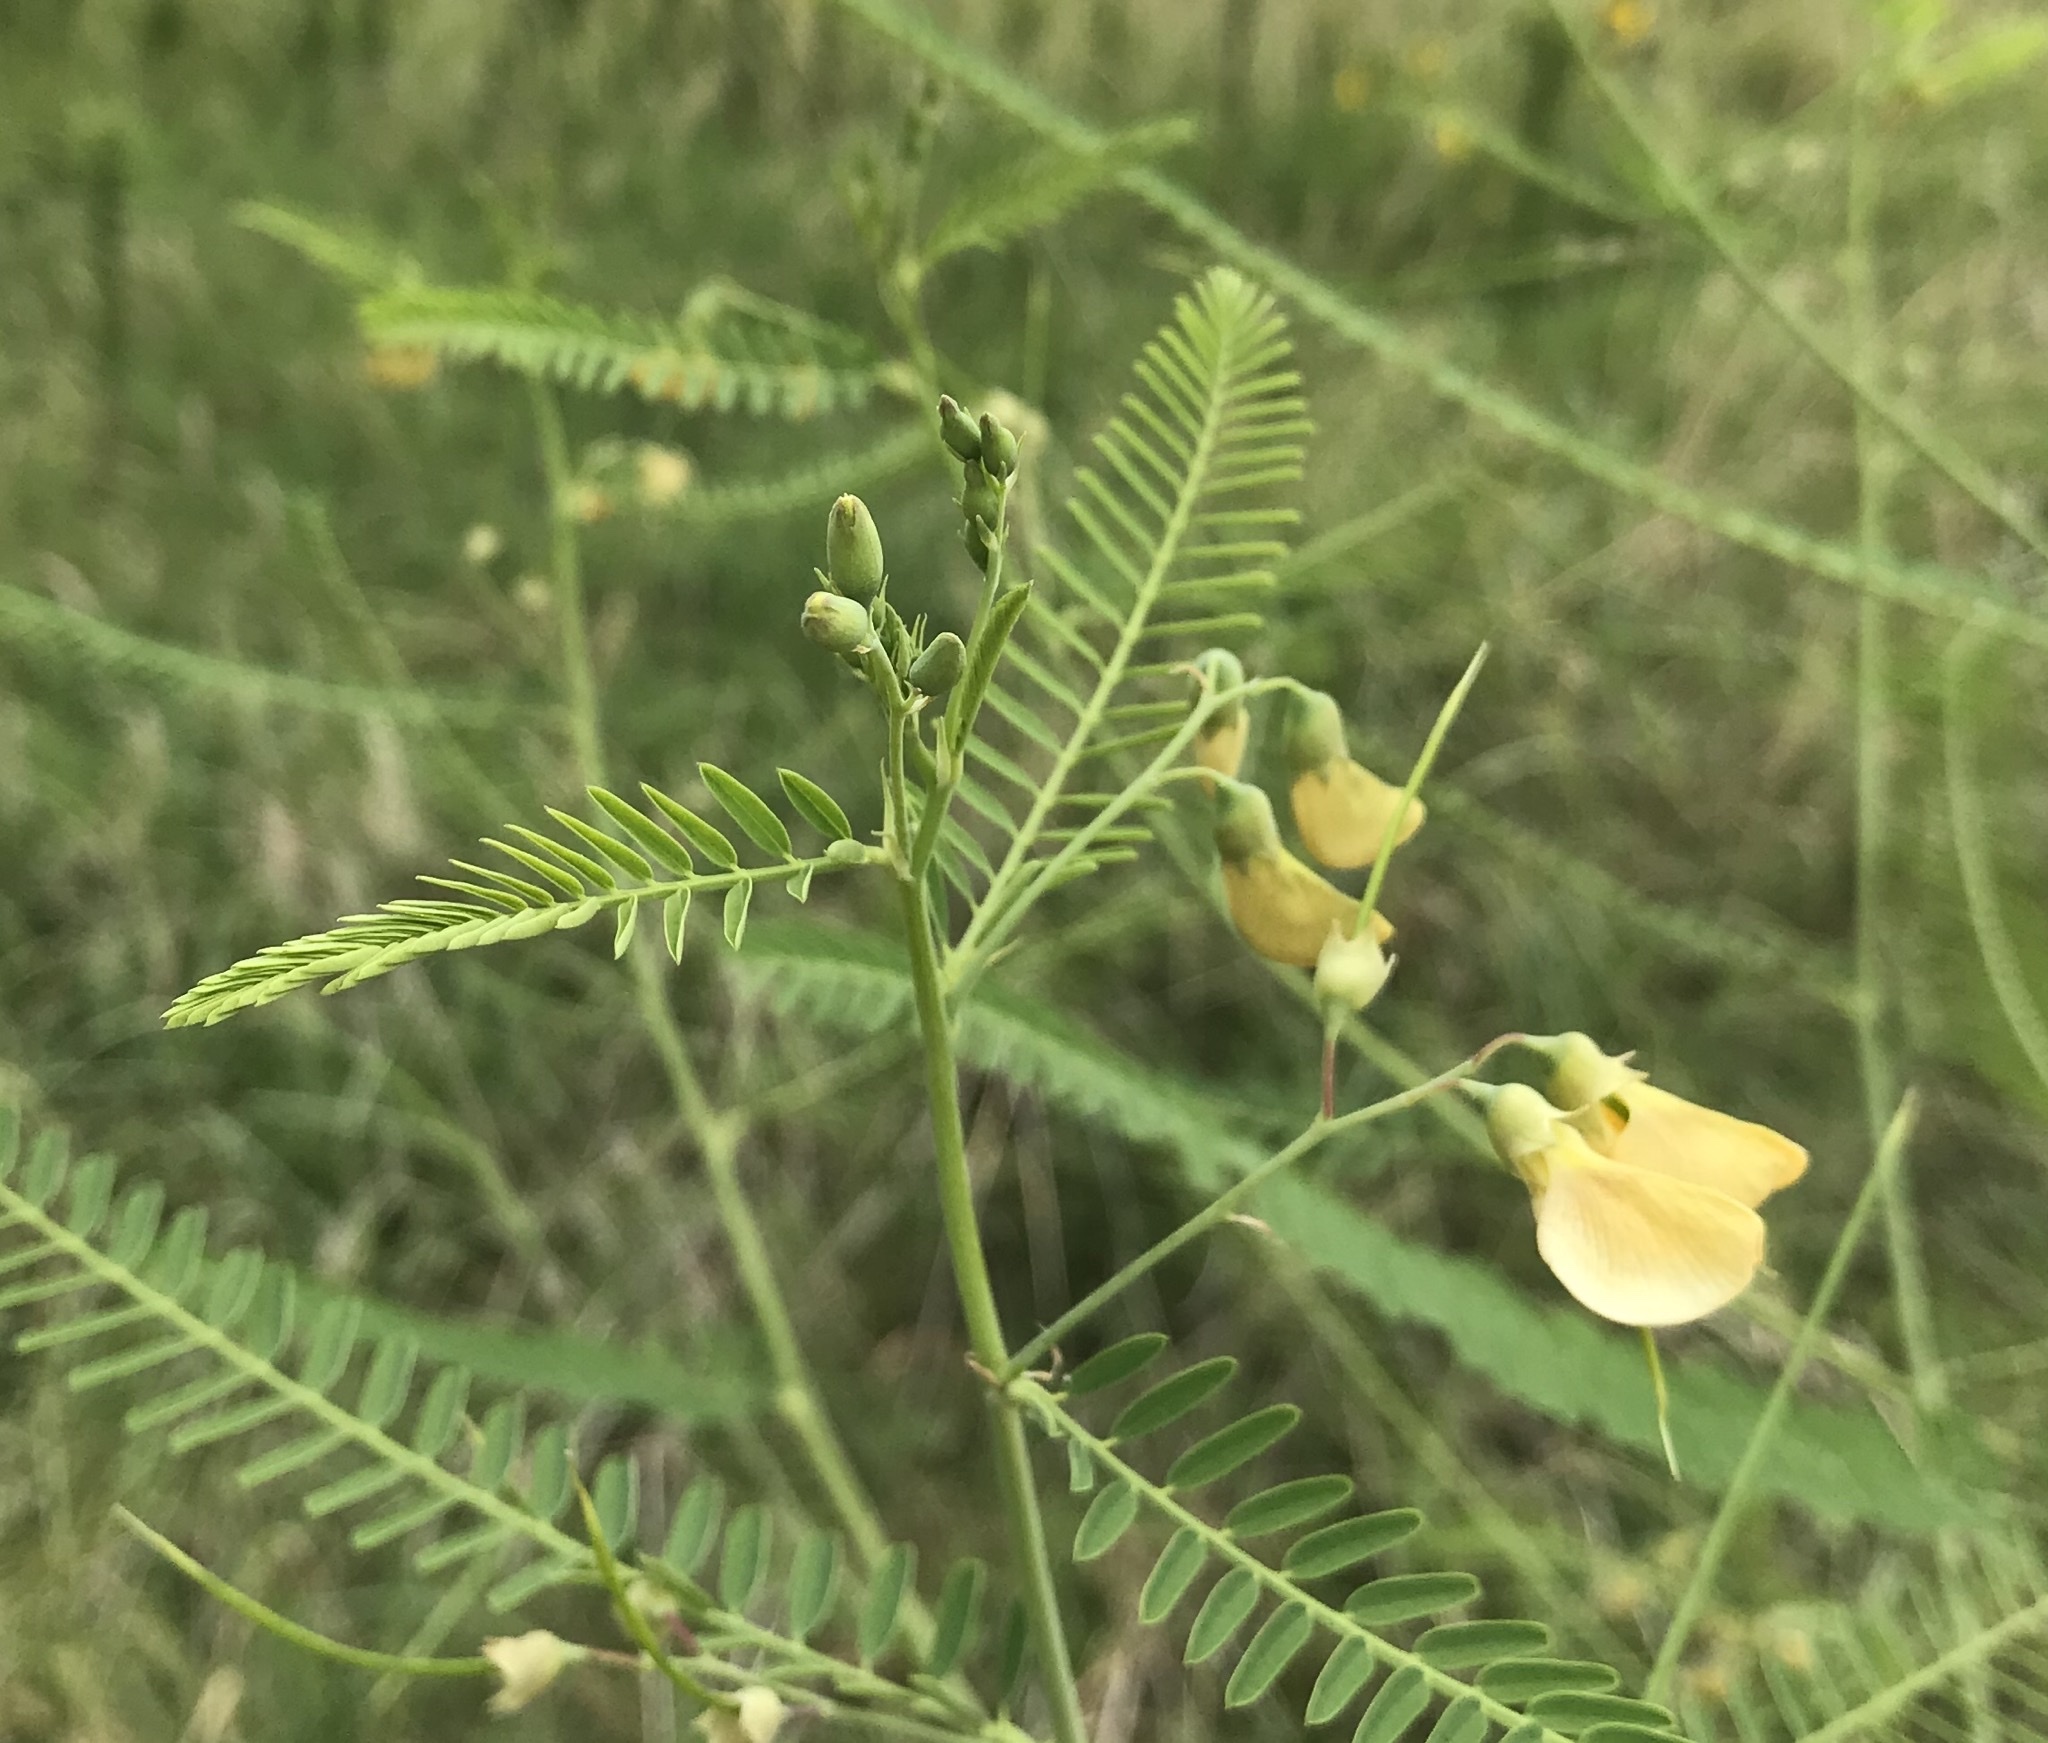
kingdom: Plantae
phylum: Tracheophyta
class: Magnoliopsida
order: Fabales
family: Fabaceae
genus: Sesbania
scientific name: Sesbania herbacea
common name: Bigpod sesbania
